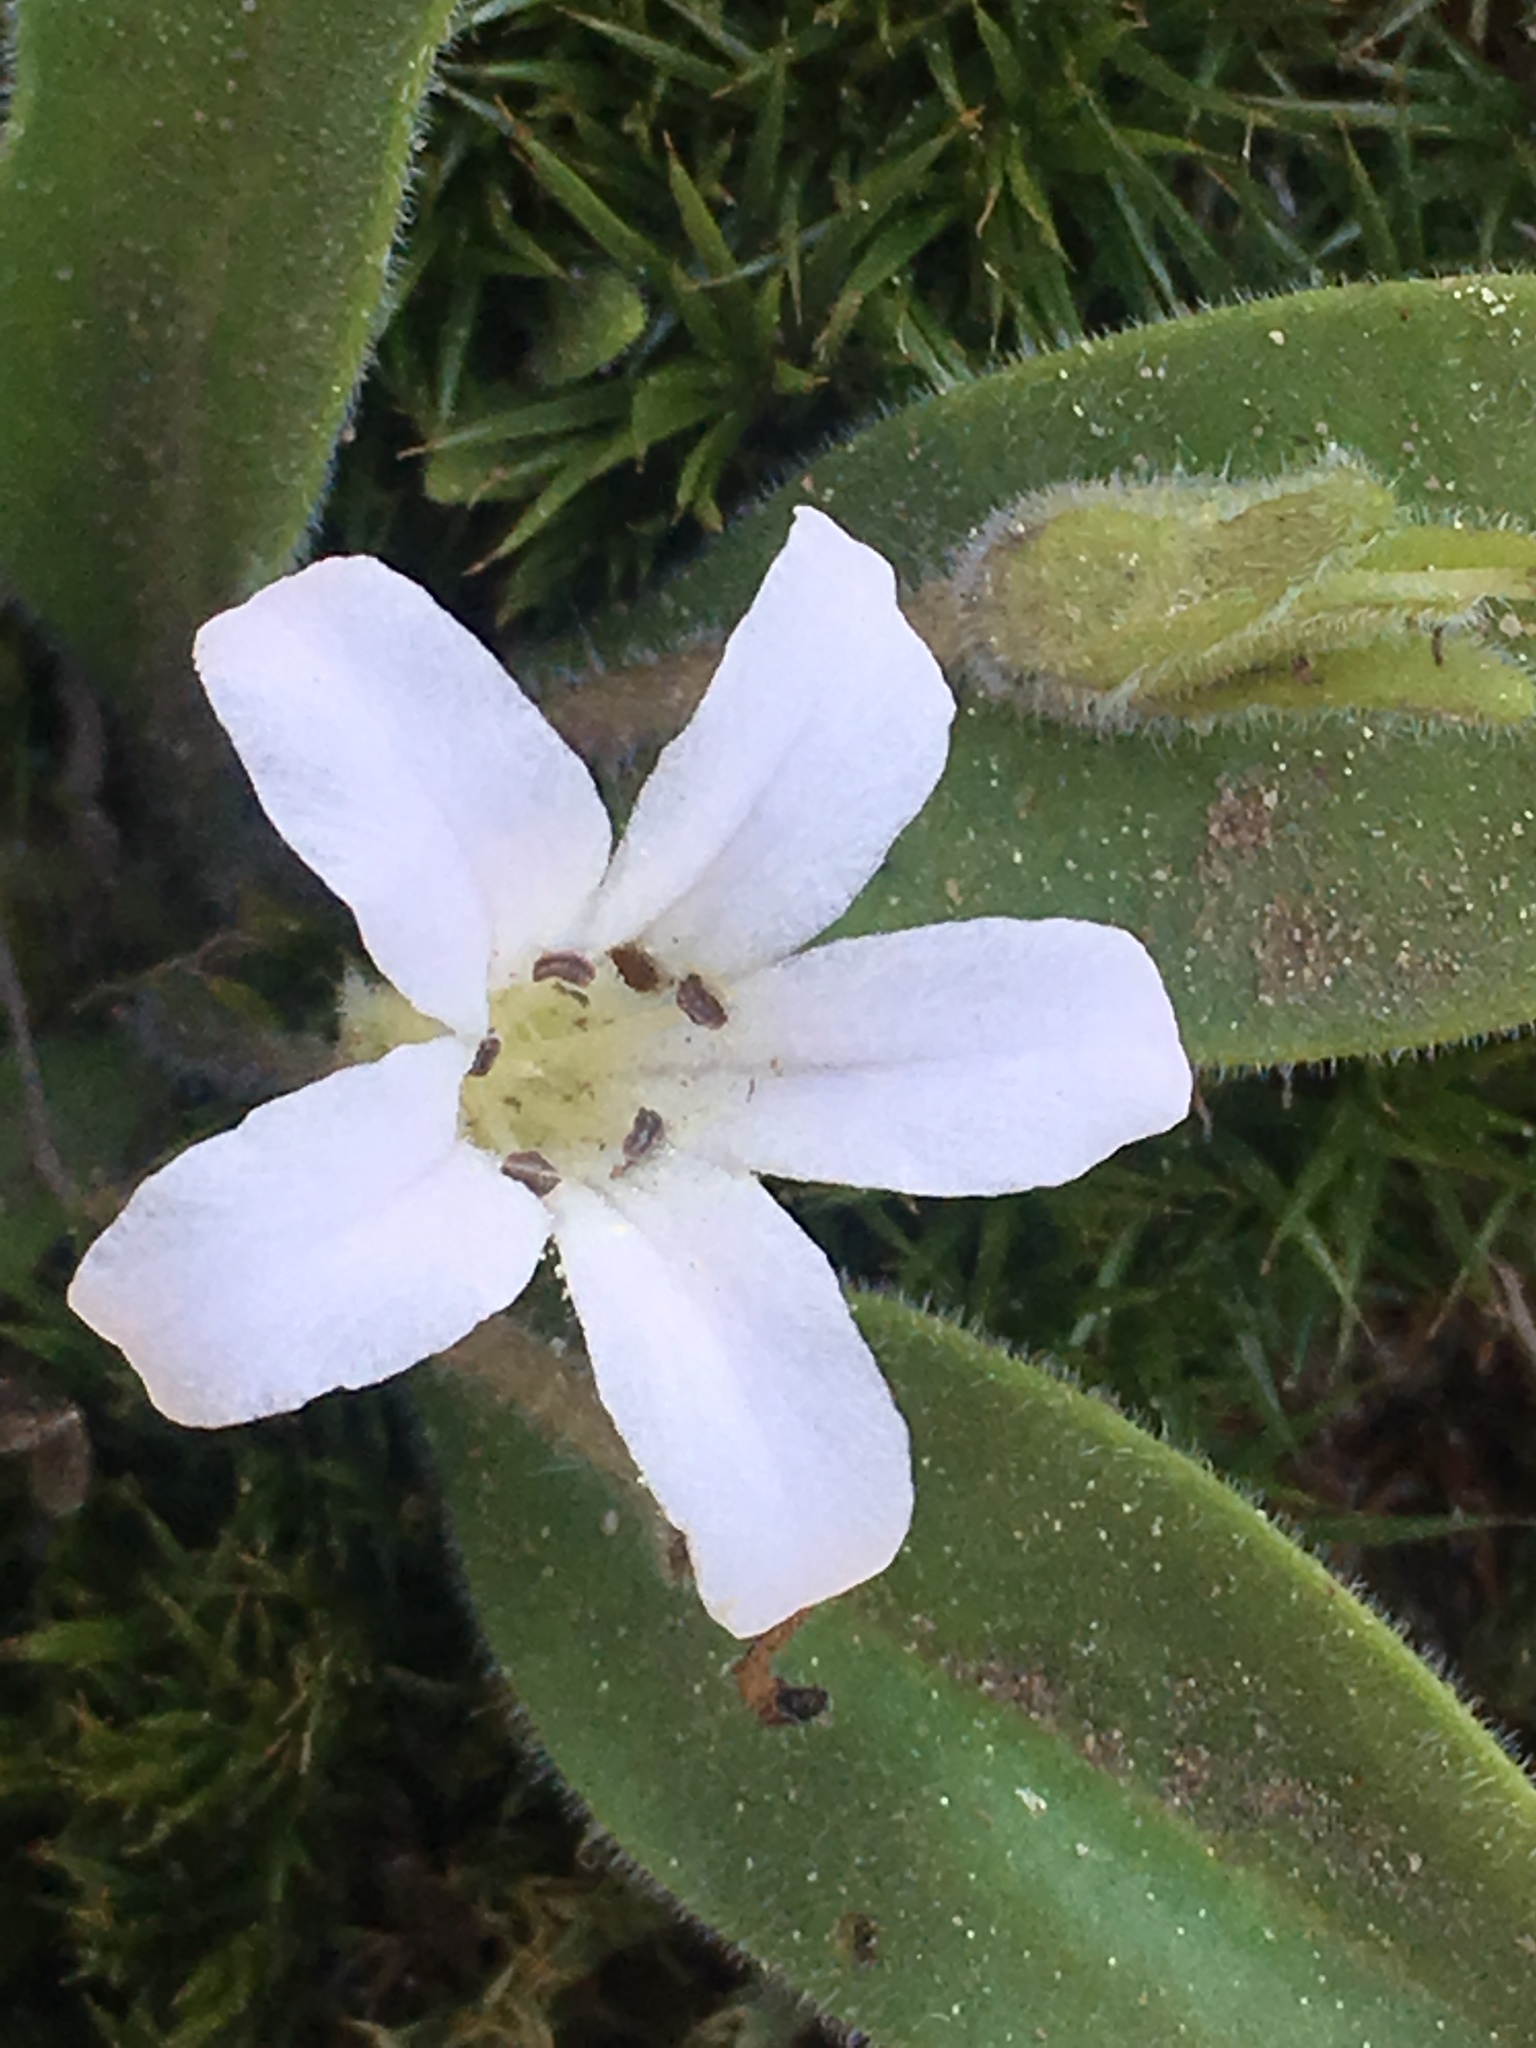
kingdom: Plantae
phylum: Tracheophyta
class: Magnoliopsida
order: Boraginales
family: Hydrophyllaceae
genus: Hesperochiron
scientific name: Hesperochiron californicus
